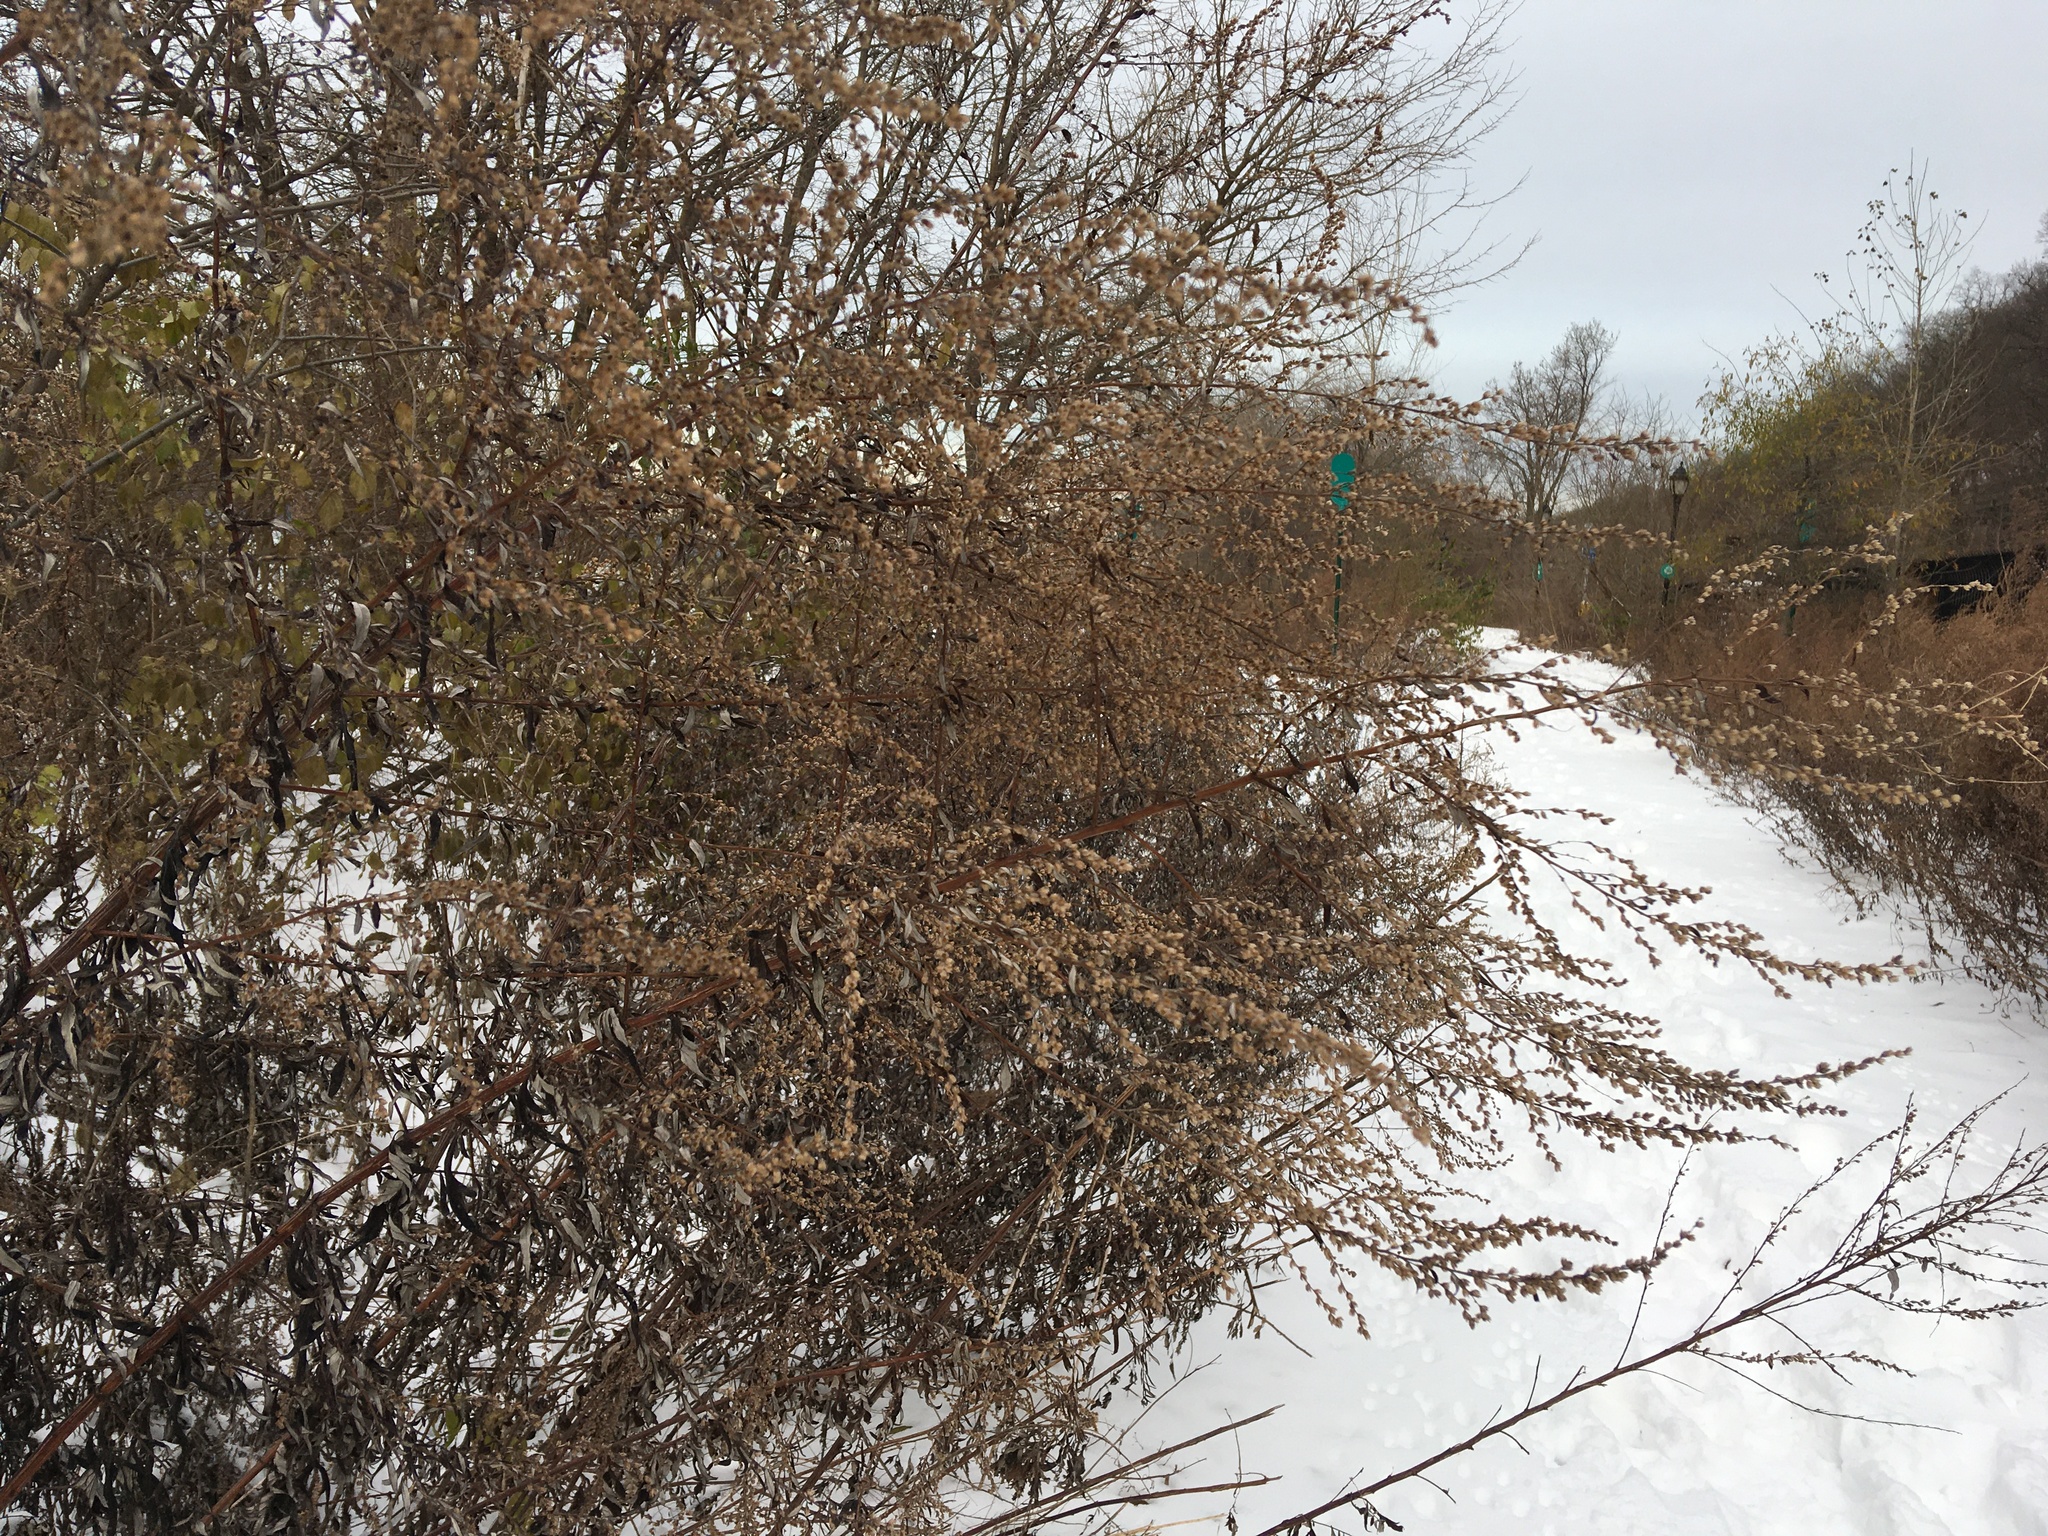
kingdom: Plantae
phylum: Tracheophyta
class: Magnoliopsida
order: Asterales
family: Asteraceae
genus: Artemisia
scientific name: Artemisia vulgaris
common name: Mugwort
